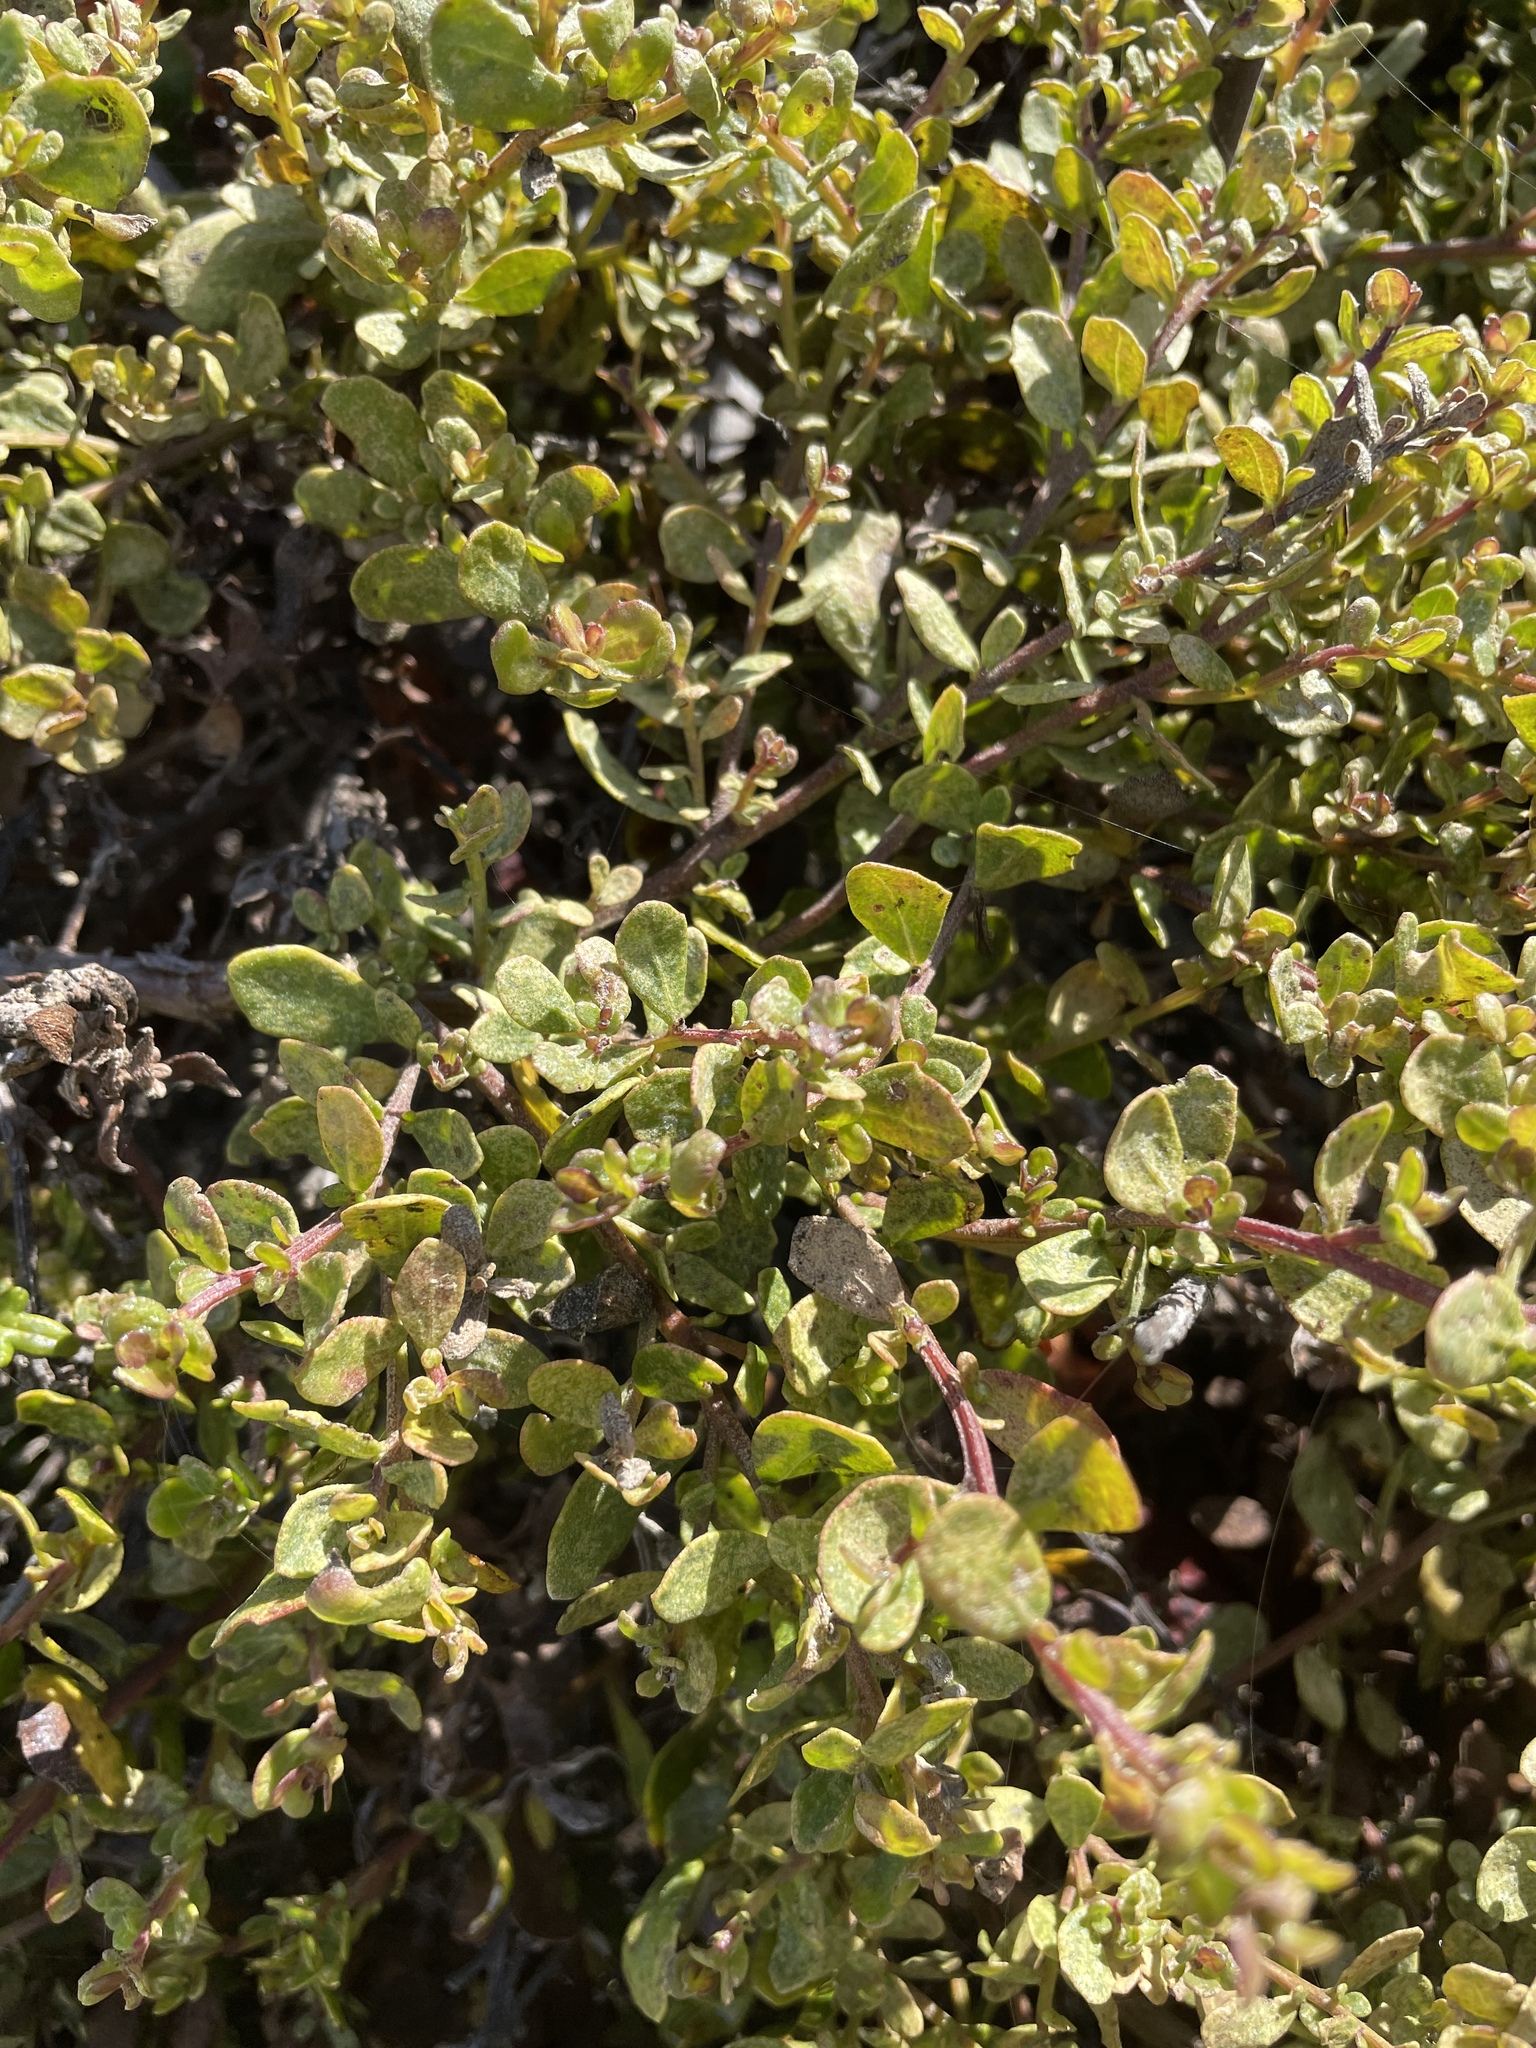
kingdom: Plantae
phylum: Tracheophyta
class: Magnoliopsida
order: Asterales
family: Asteraceae
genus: Baccharis
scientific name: Baccharis pilularis
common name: Coyotebrush
